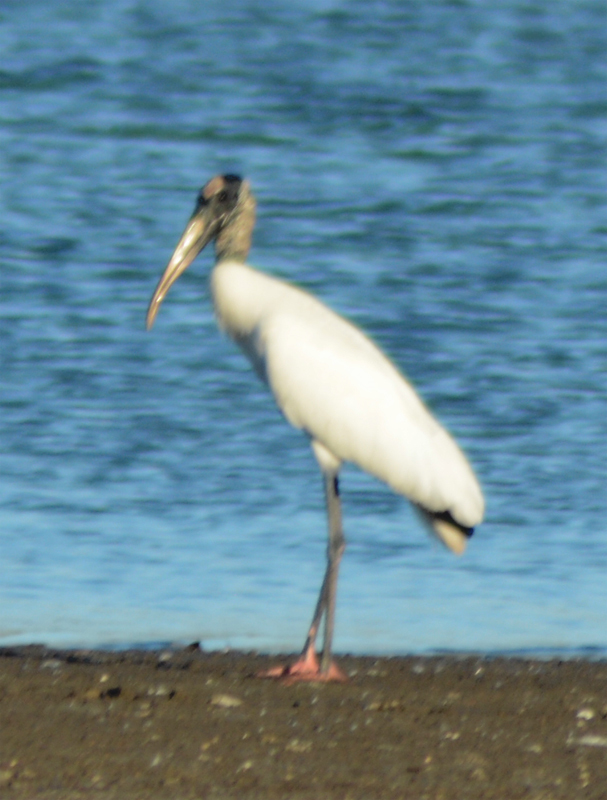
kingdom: Animalia
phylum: Chordata
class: Aves
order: Ciconiiformes
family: Ciconiidae
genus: Mycteria
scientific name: Mycteria americana
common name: Wood stork
